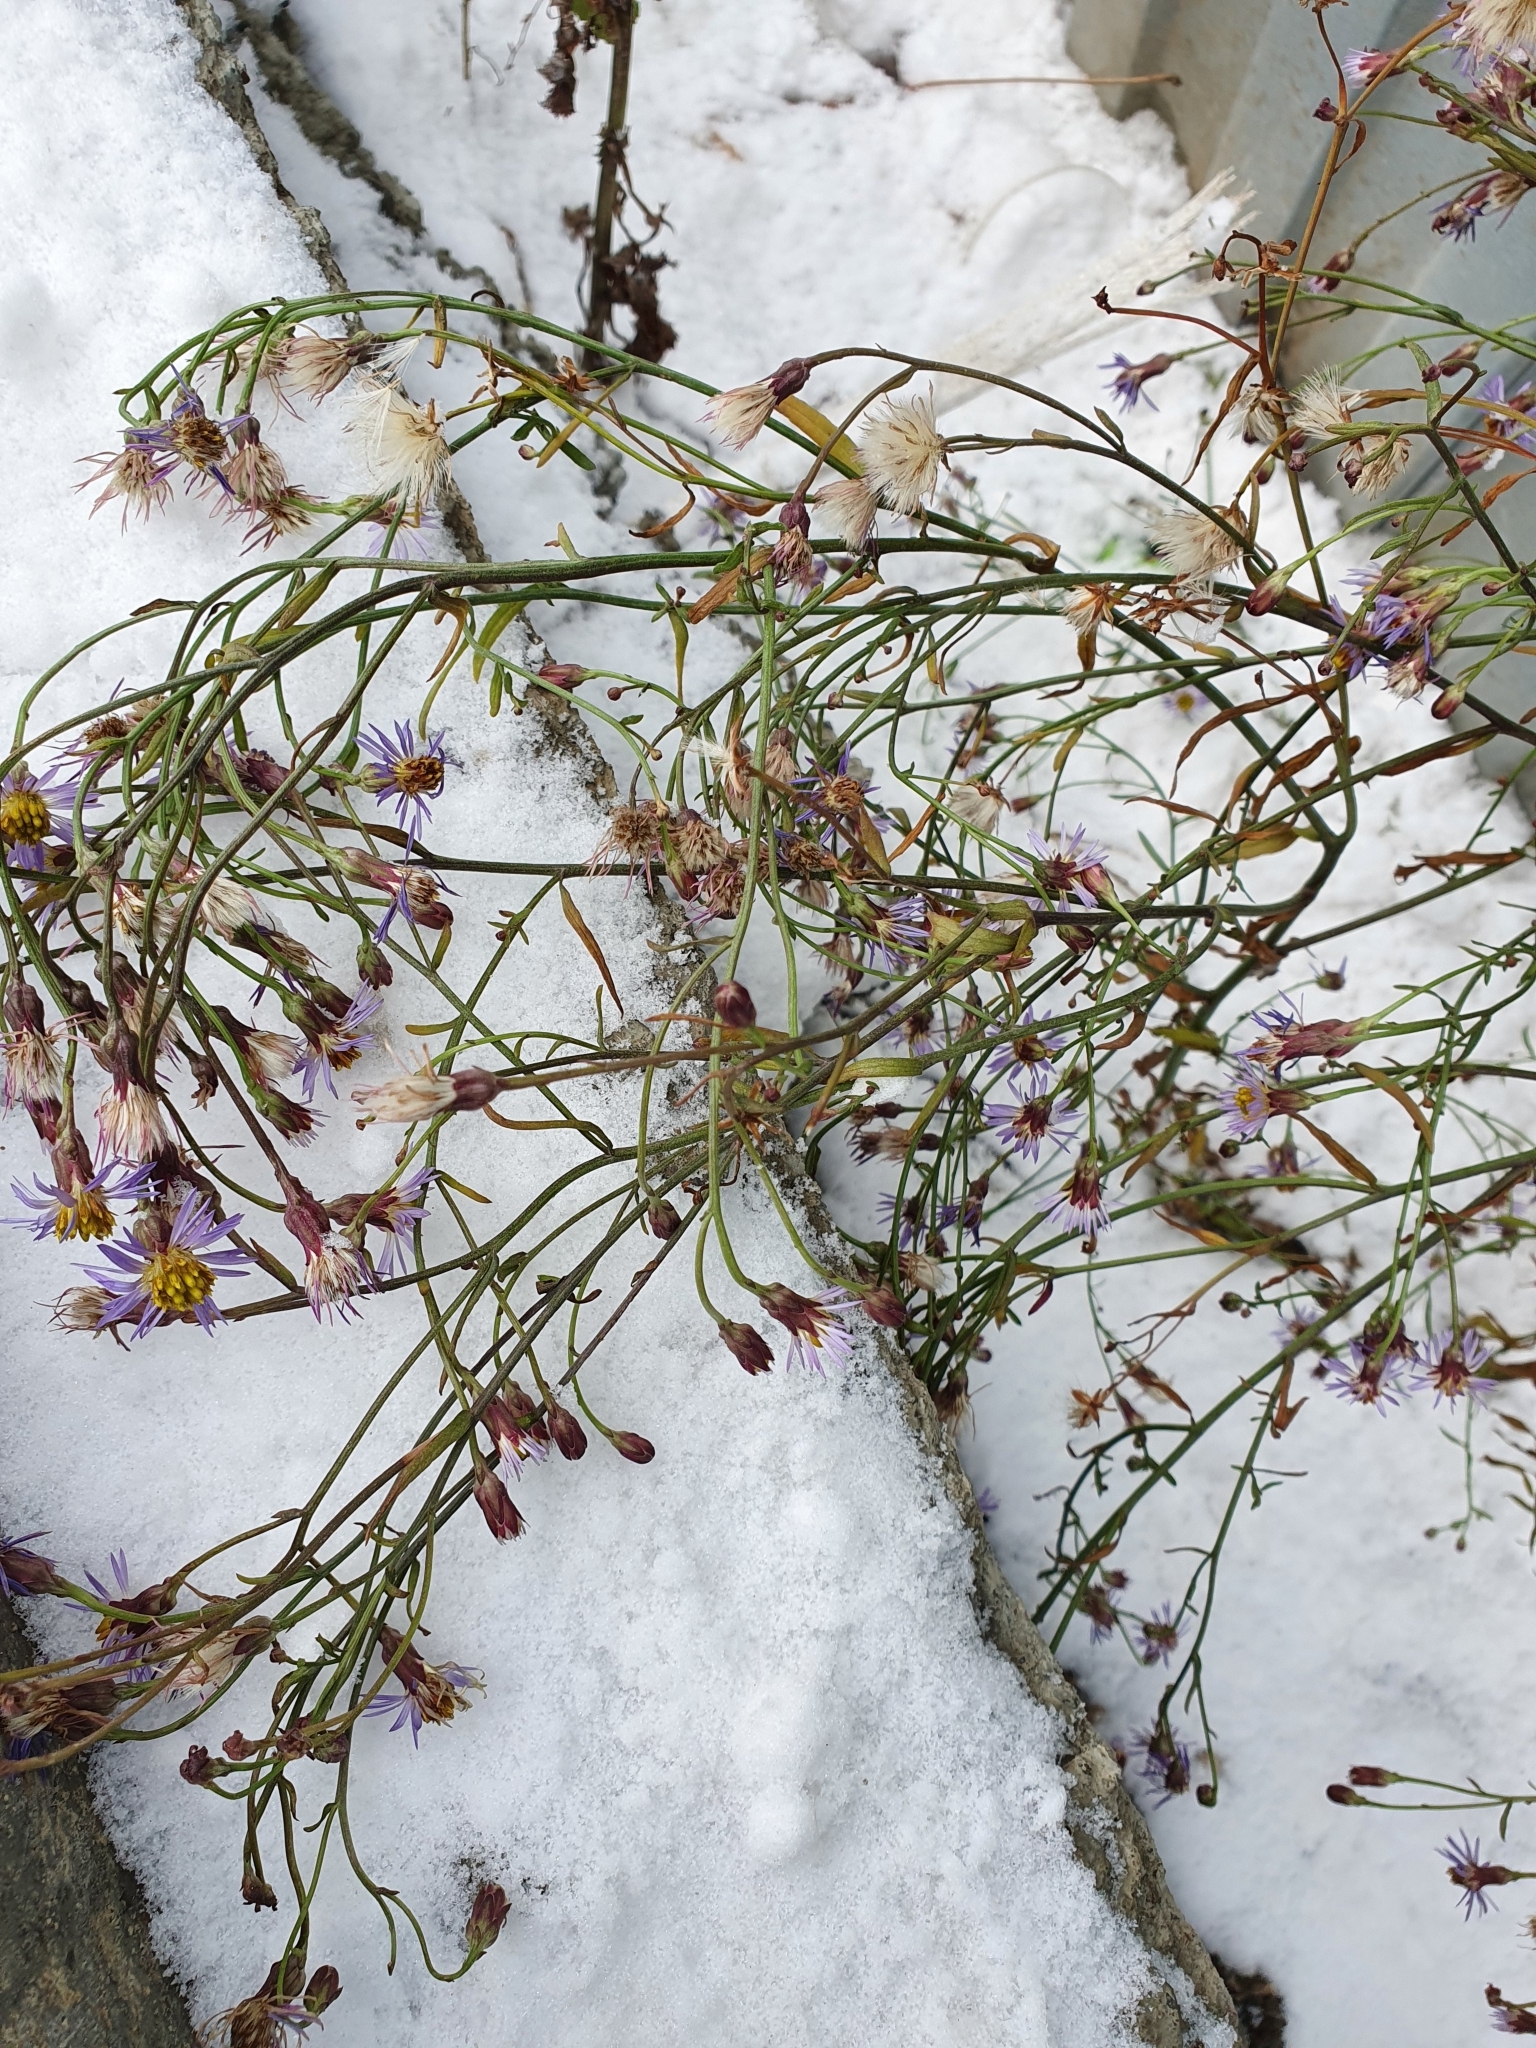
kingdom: Plantae
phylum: Tracheophyta
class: Magnoliopsida
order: Asterales
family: Asteraceae
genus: Tripolium
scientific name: Tripolium pannonicum
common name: Sea aster
